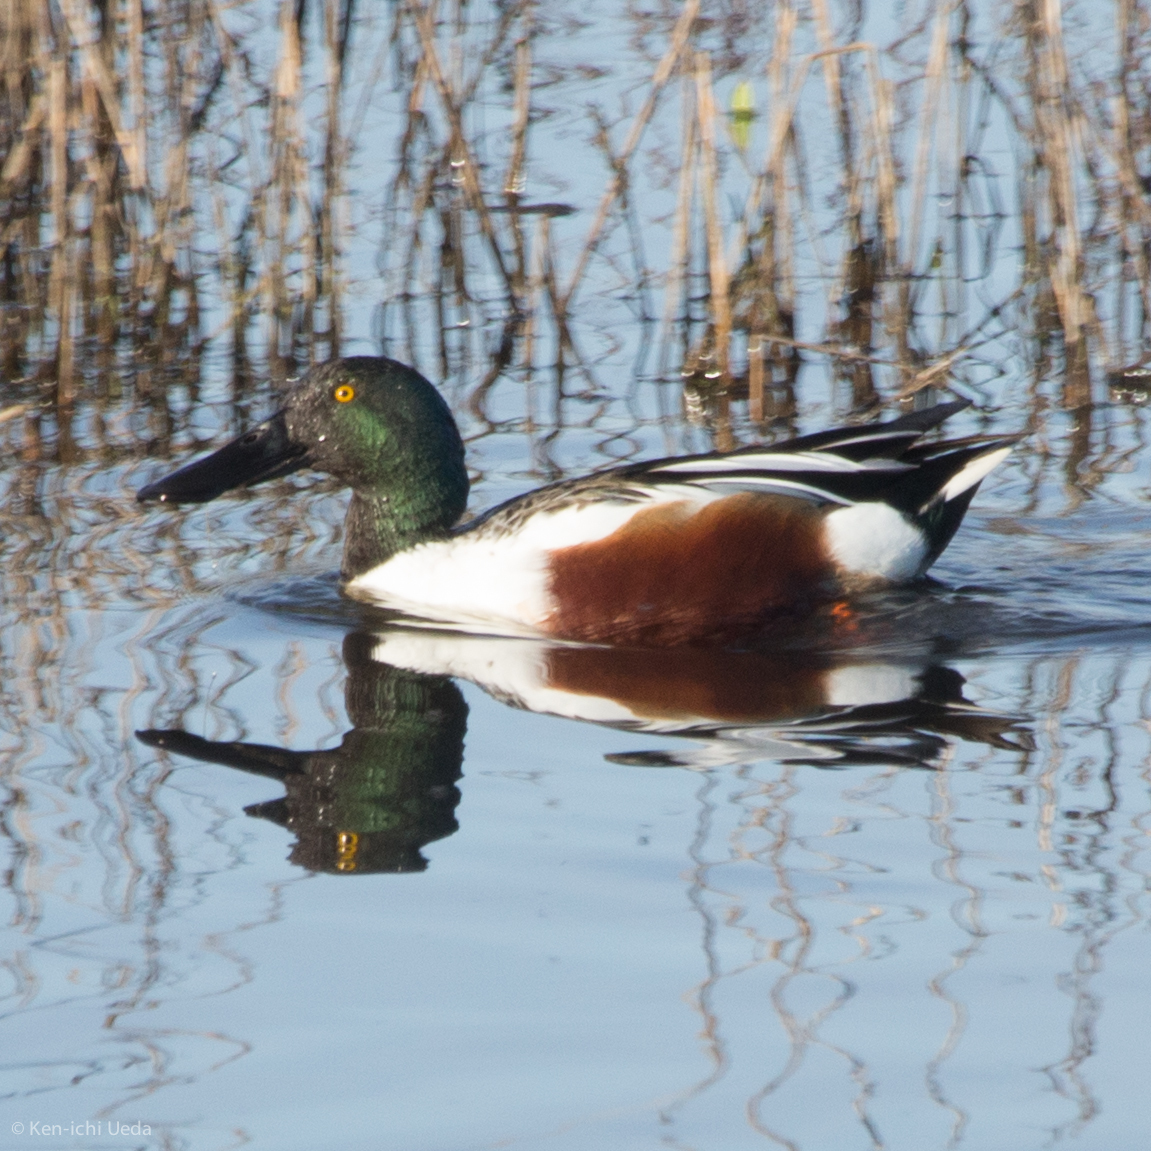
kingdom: Animalia
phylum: Chordata
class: Aves
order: Anseriformes
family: Anatidae
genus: Spatula
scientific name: Spatula clypeata
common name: Northern shoveler
